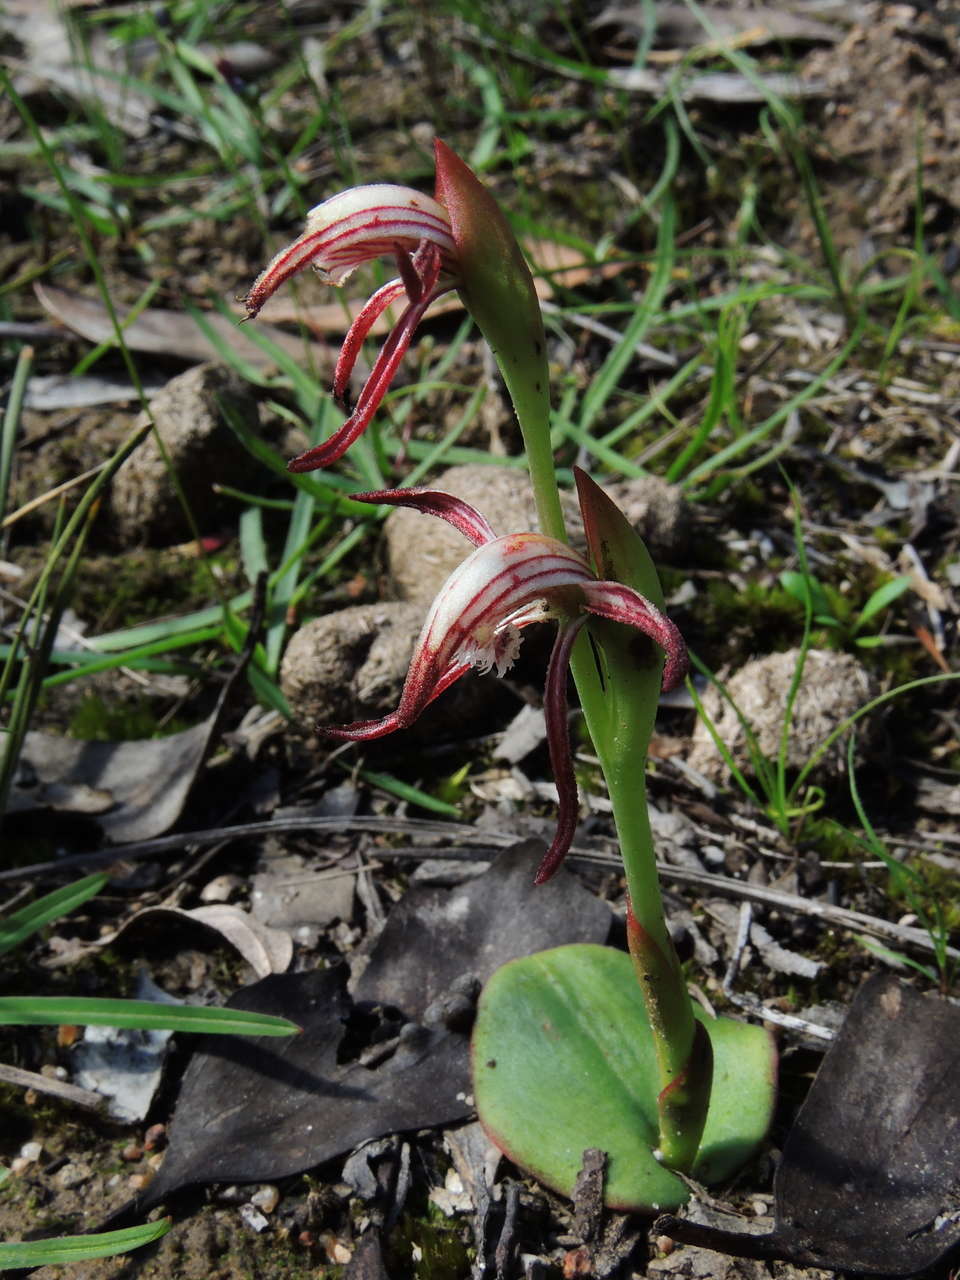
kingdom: Plantae
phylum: Tracheophyta
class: Liliopsida
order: Asparagales
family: Orchidaceae
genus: Pyrorchis
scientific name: Pyrorchis nigricans
